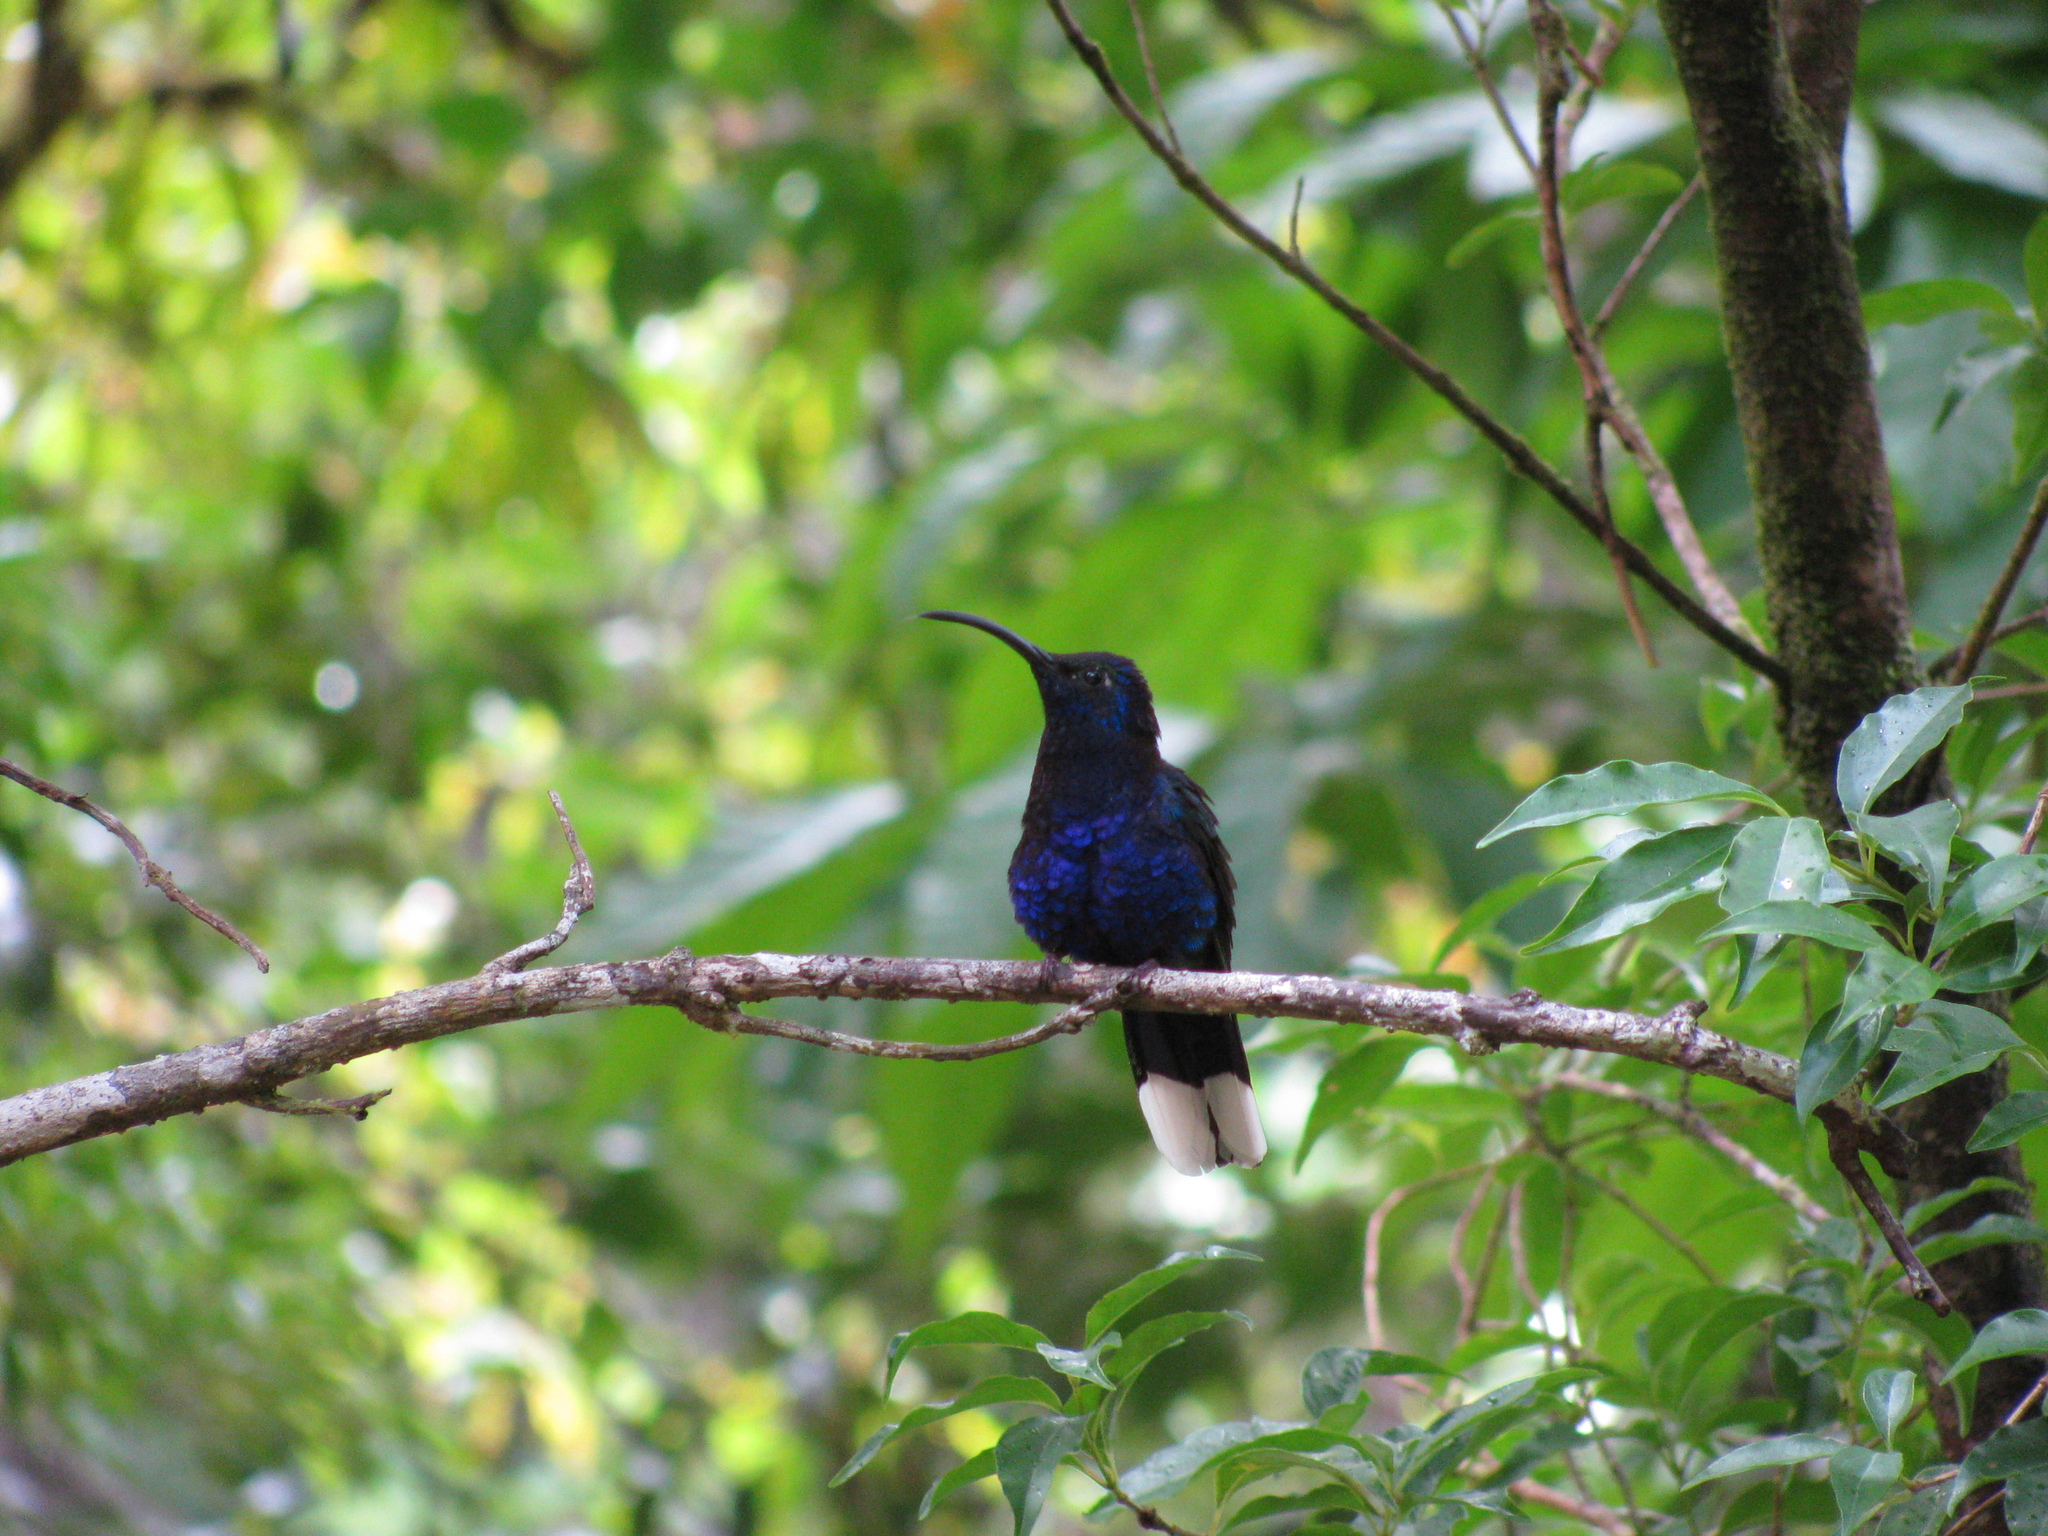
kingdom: Animalia
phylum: Chordata
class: Aves
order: Apodiformes
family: Trochilidae
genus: Campylopterus
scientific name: Campylopterus hemileucurus
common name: Violet sabrewing
